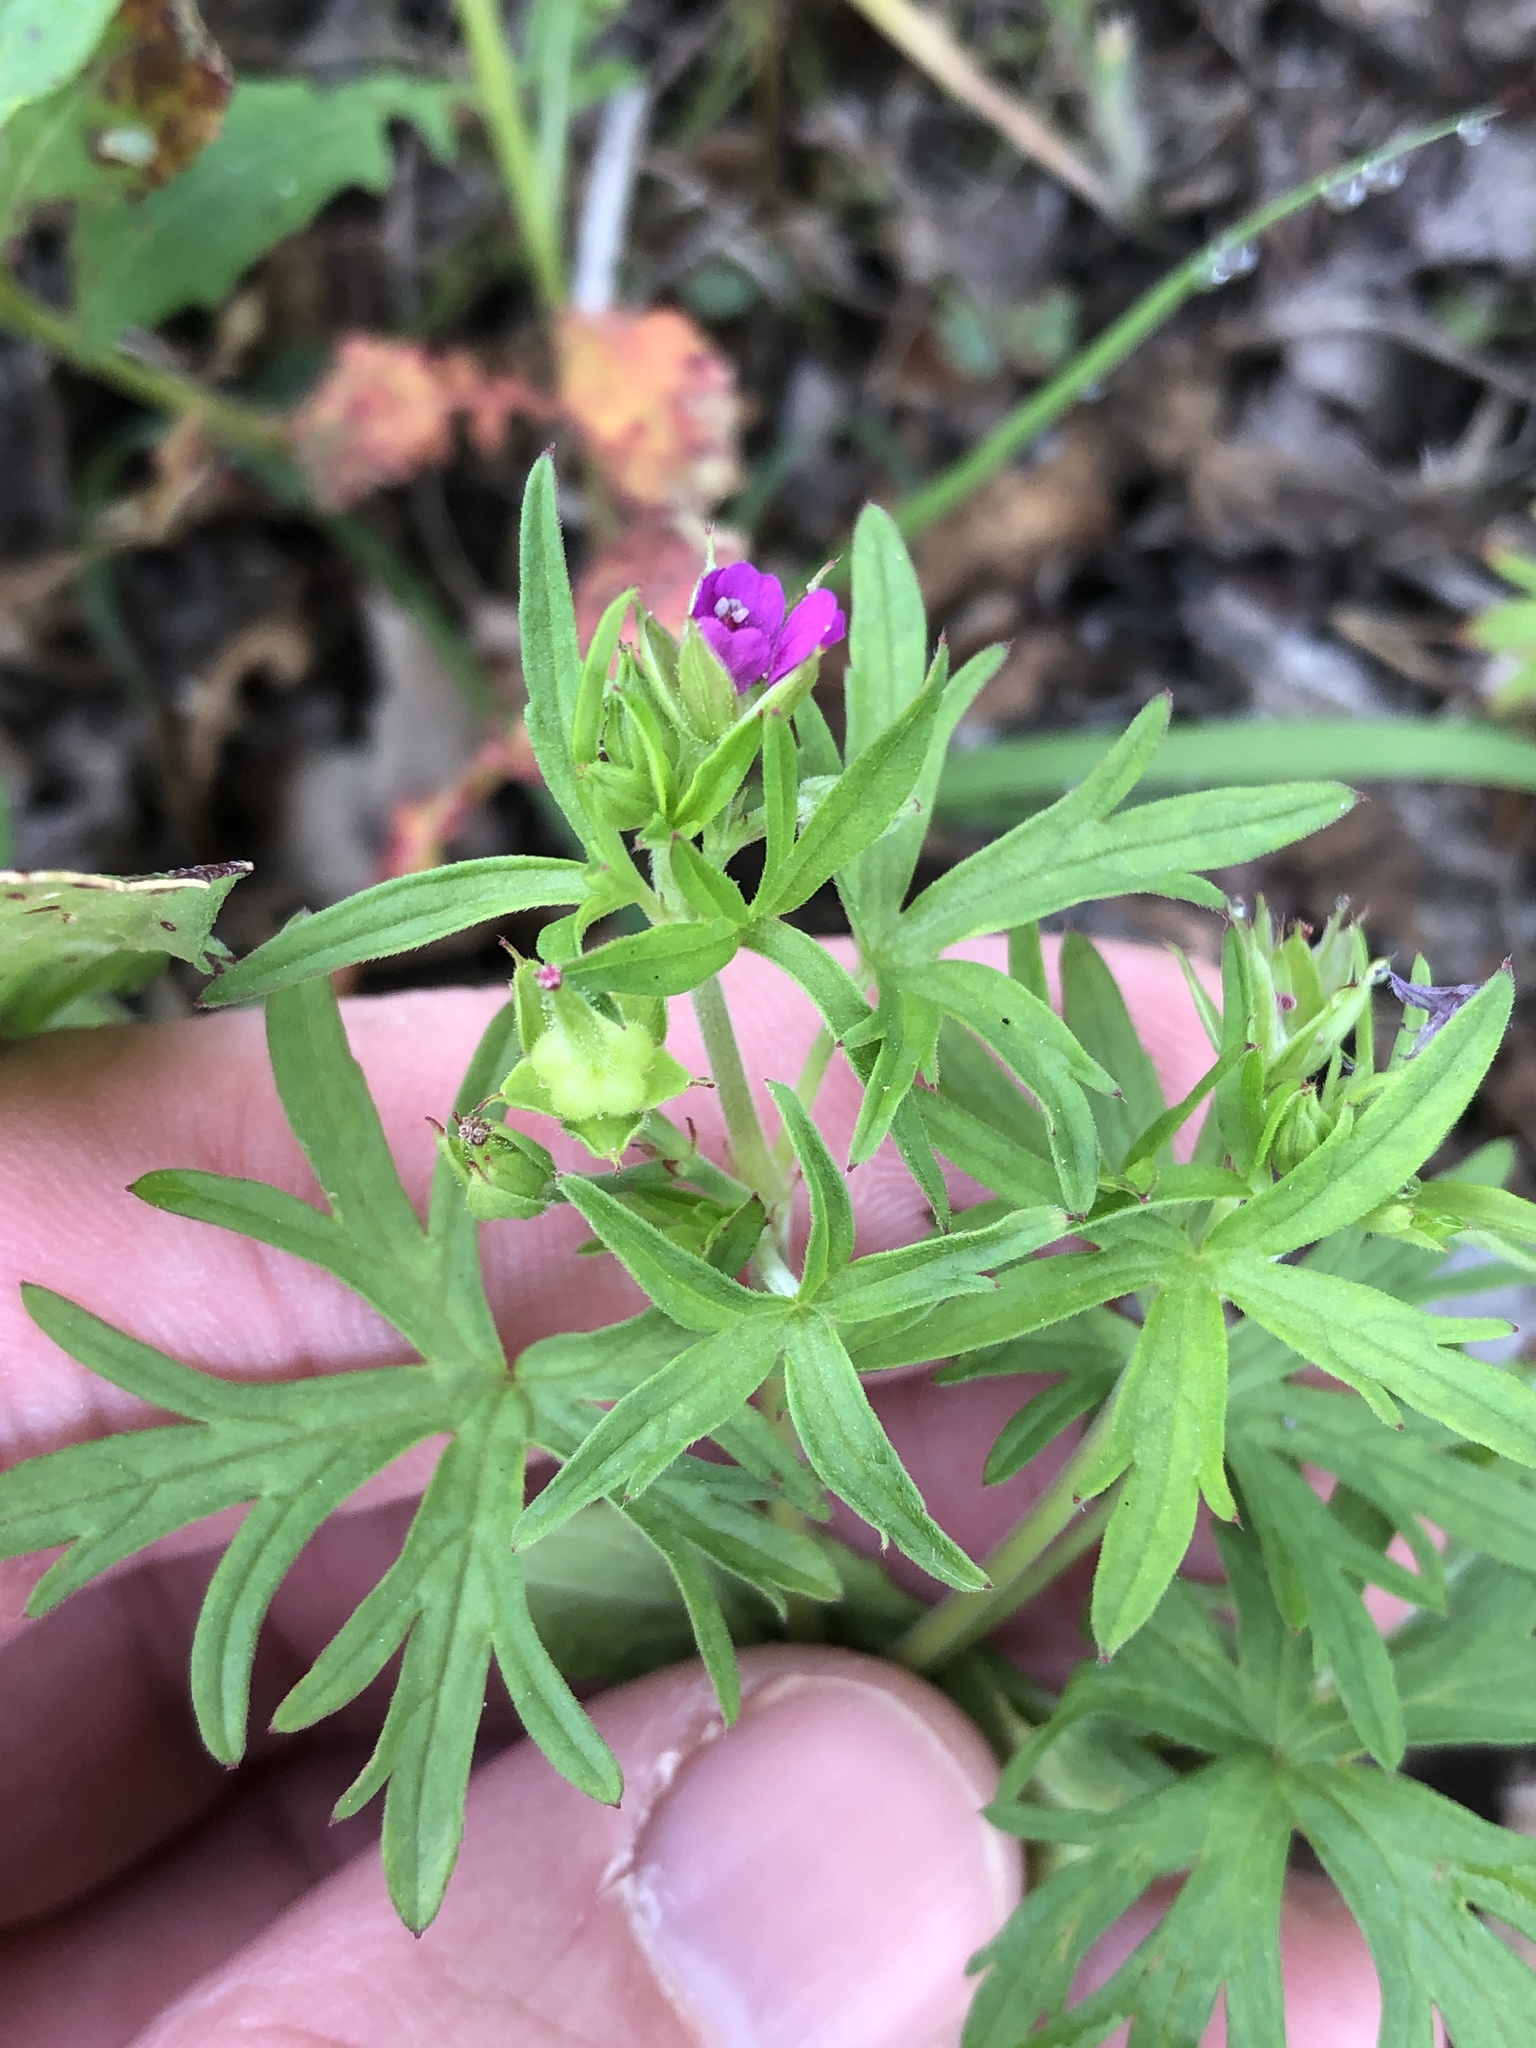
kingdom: Plantae
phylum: Tracheophyta
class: Magnoliopsida
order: Geraniales
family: Geraniaceae
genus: Geranium
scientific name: Geranium dissectum
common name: Cut-leaved crane's-bill
